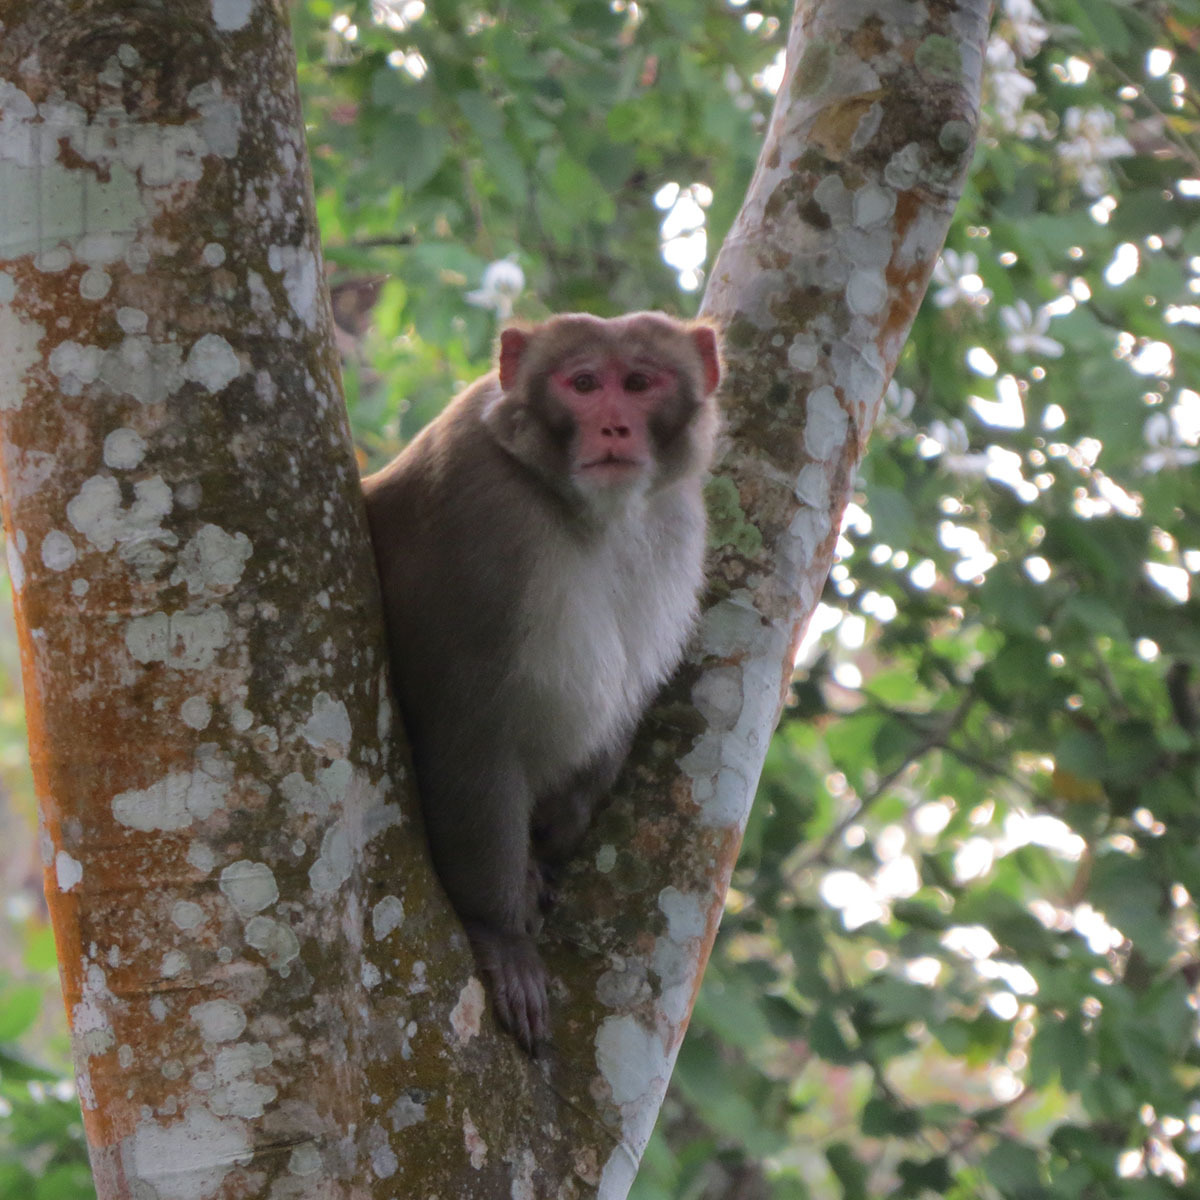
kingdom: Animalia
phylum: Chordata
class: Mammalia
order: Primates
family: Cercopithecidae
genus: Macaca
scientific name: Macaca mulatta
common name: Rhesus monkey
